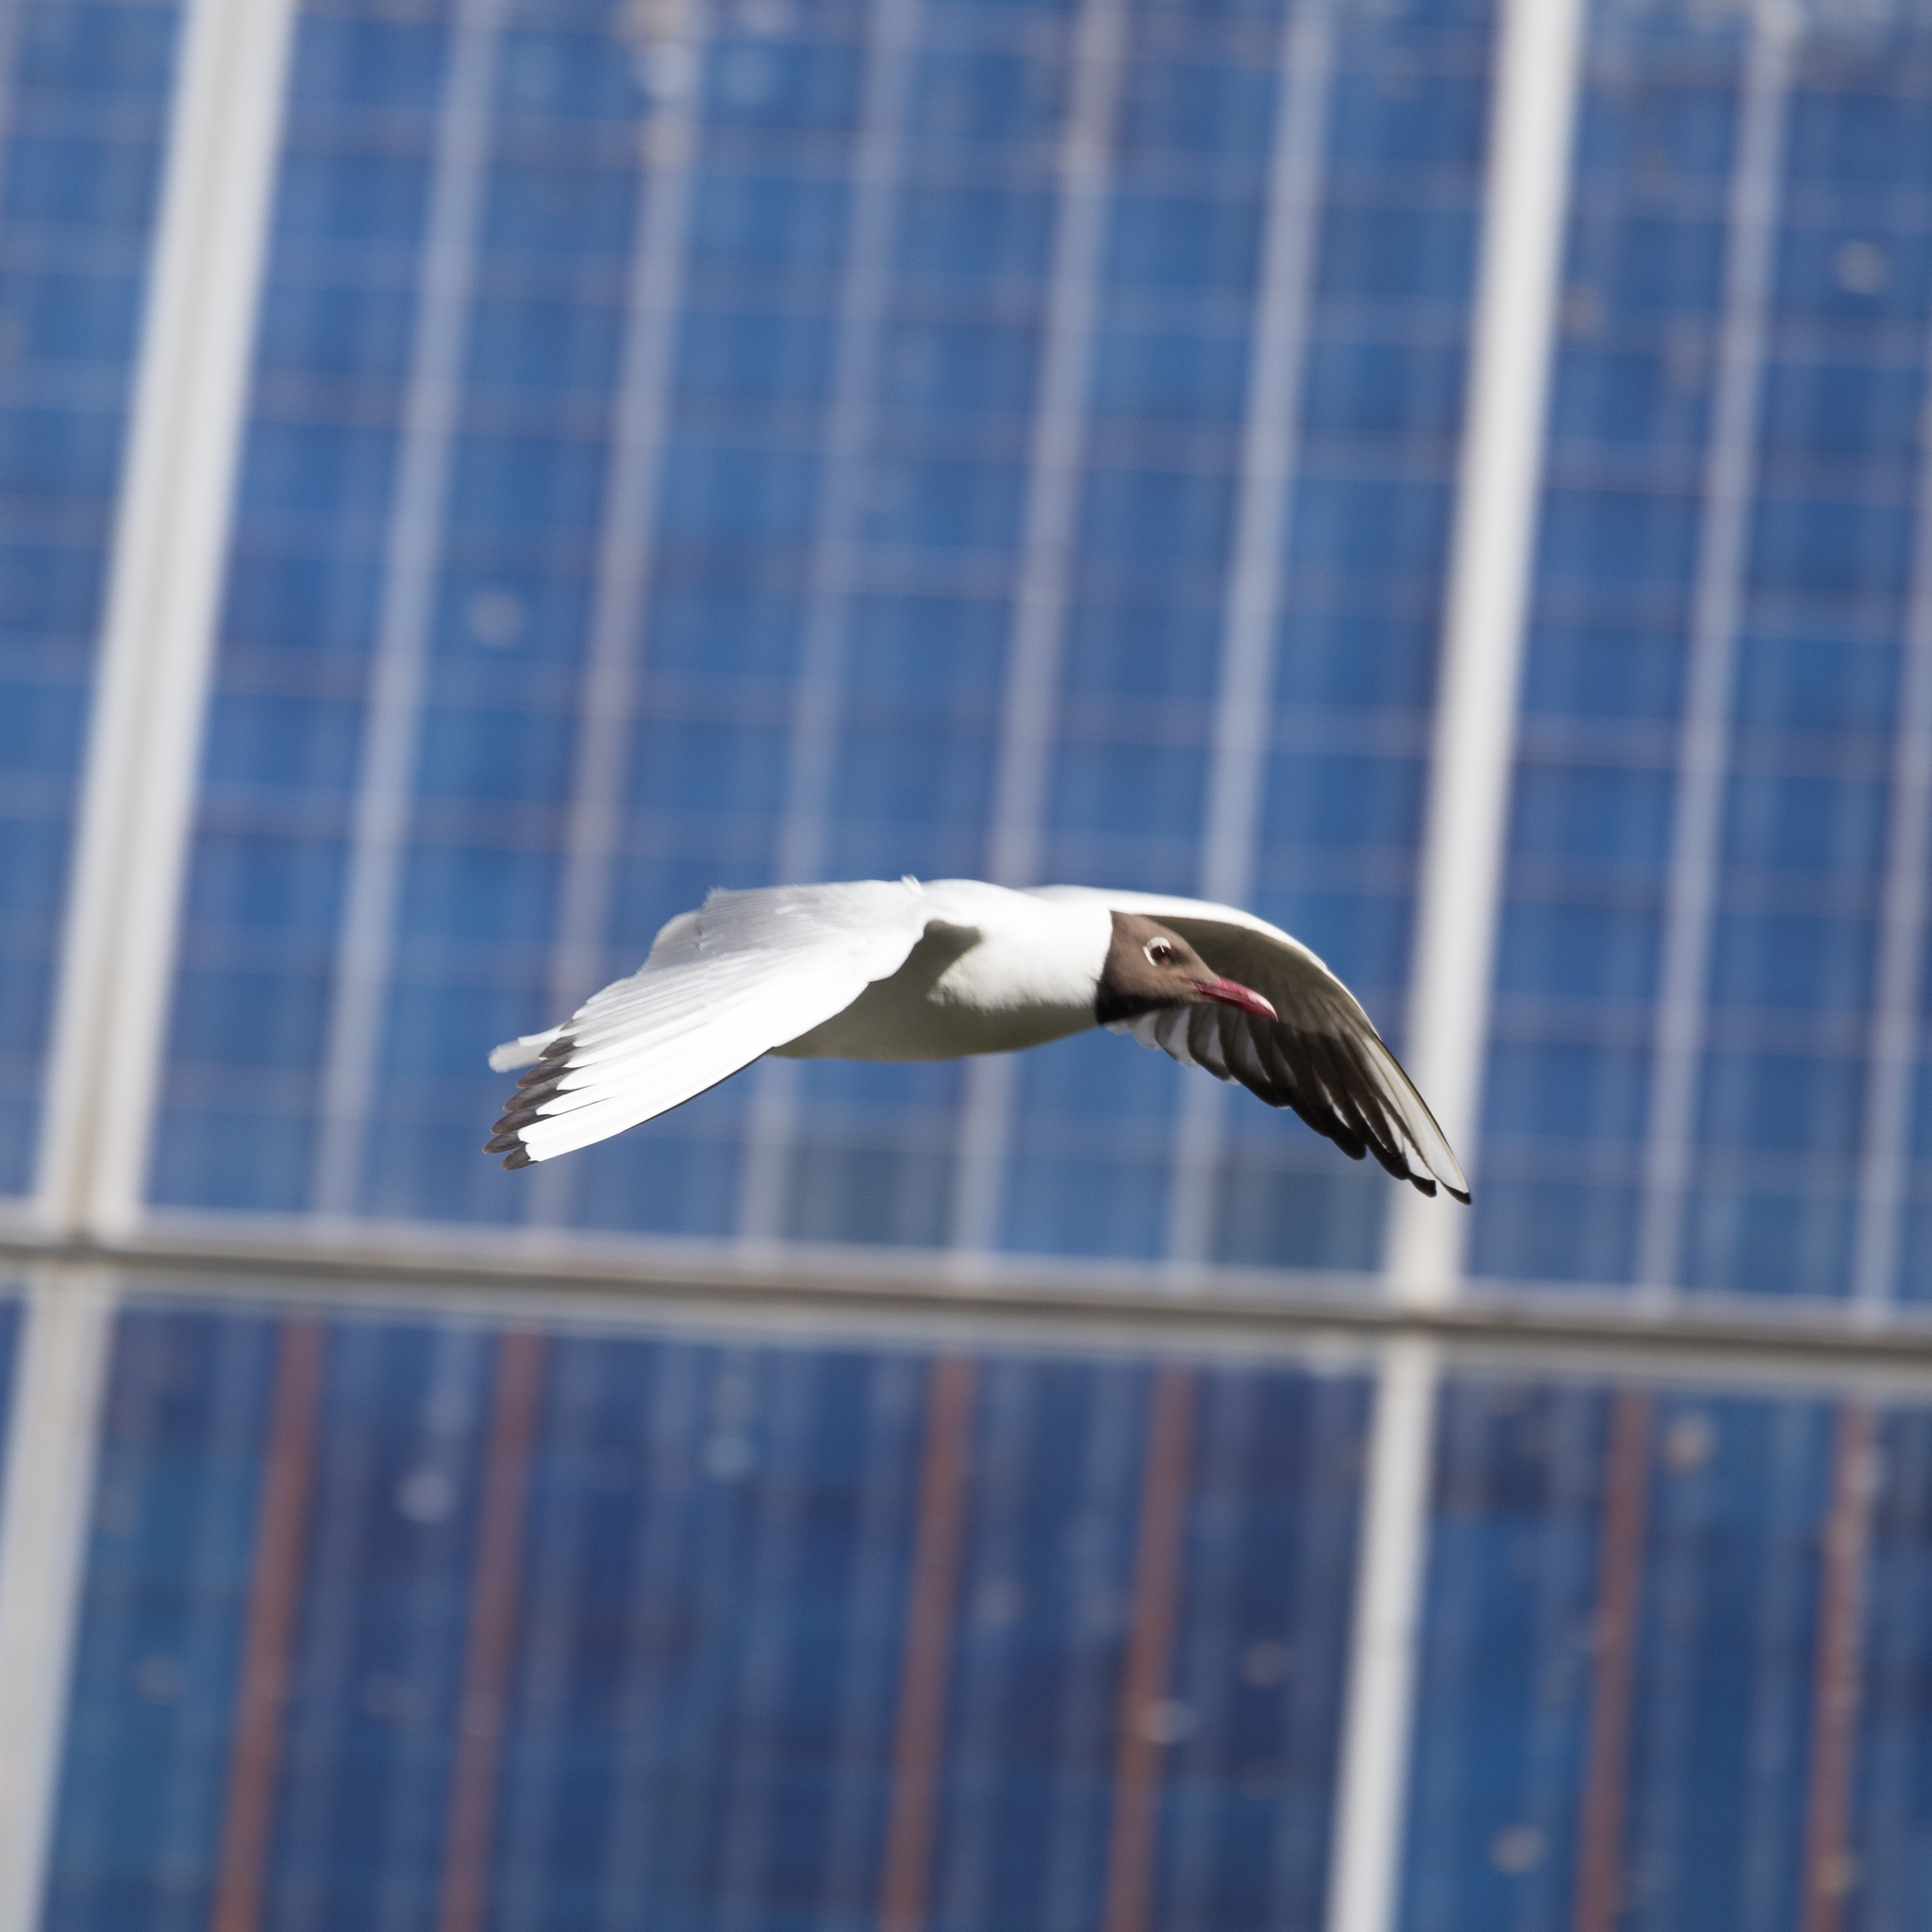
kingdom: Animalia
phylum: Chordata
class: Aves
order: Charadriiformes
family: Laridae
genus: Chroicocephalus
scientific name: Chroicocephalus ridibundus
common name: Black-headed gull
